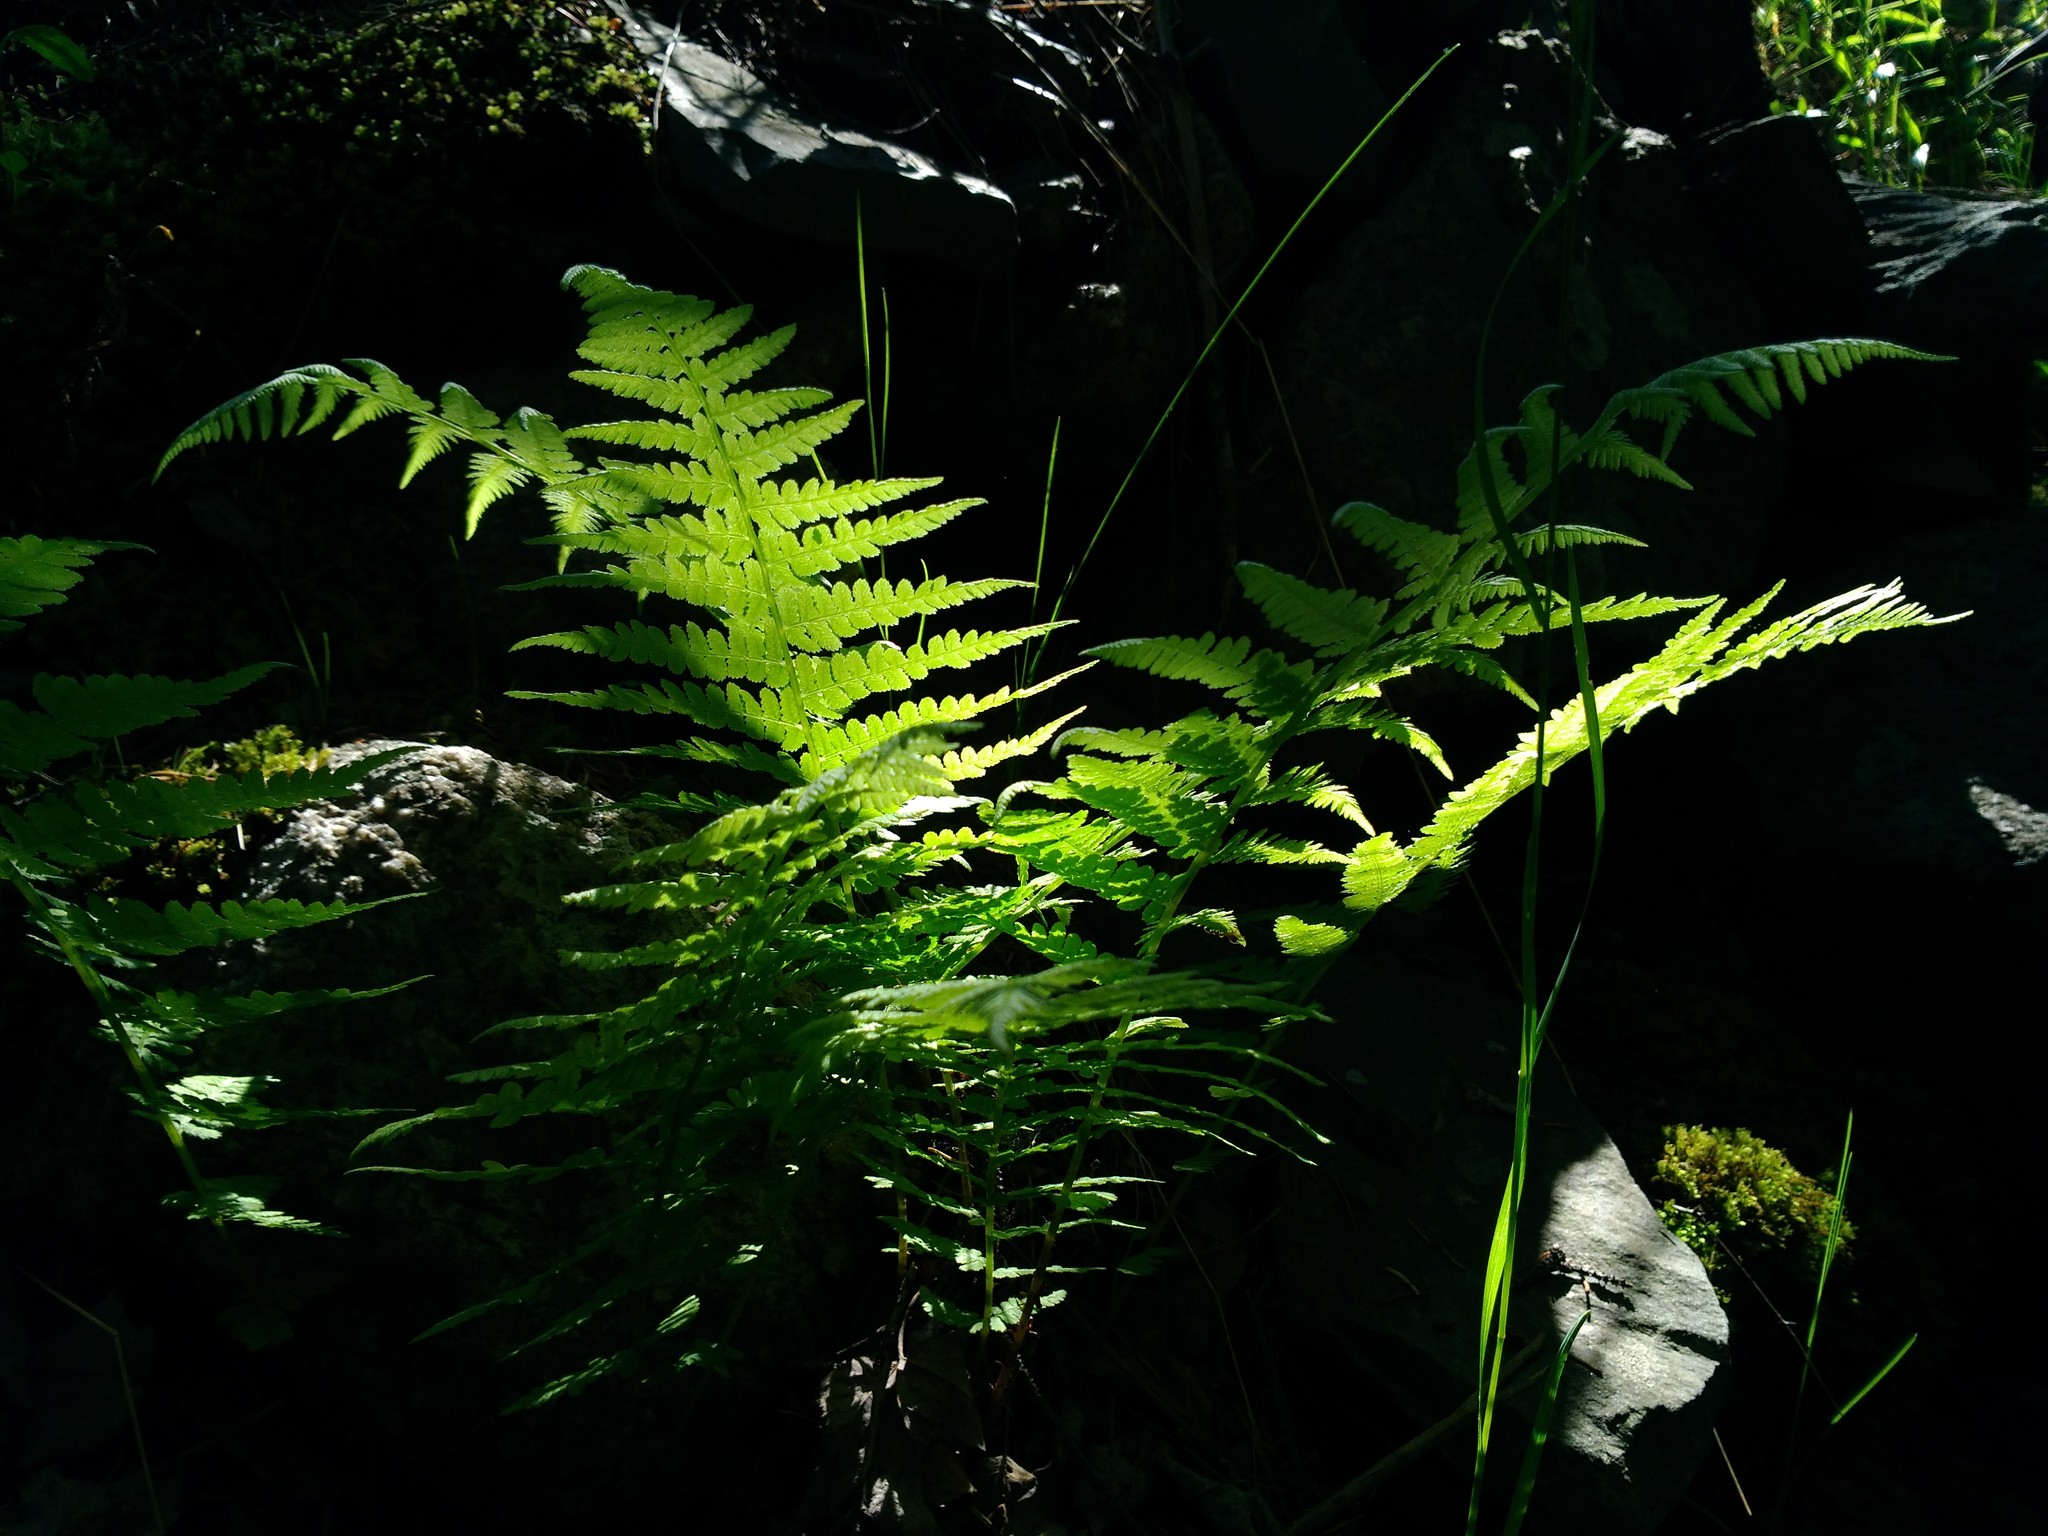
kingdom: Plantae
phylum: Tracheophyta
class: Polypodiopsida
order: Polypodiales
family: Athyriaceae
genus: Athyrium
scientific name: Athyrium angustum
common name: Northern lady fern
